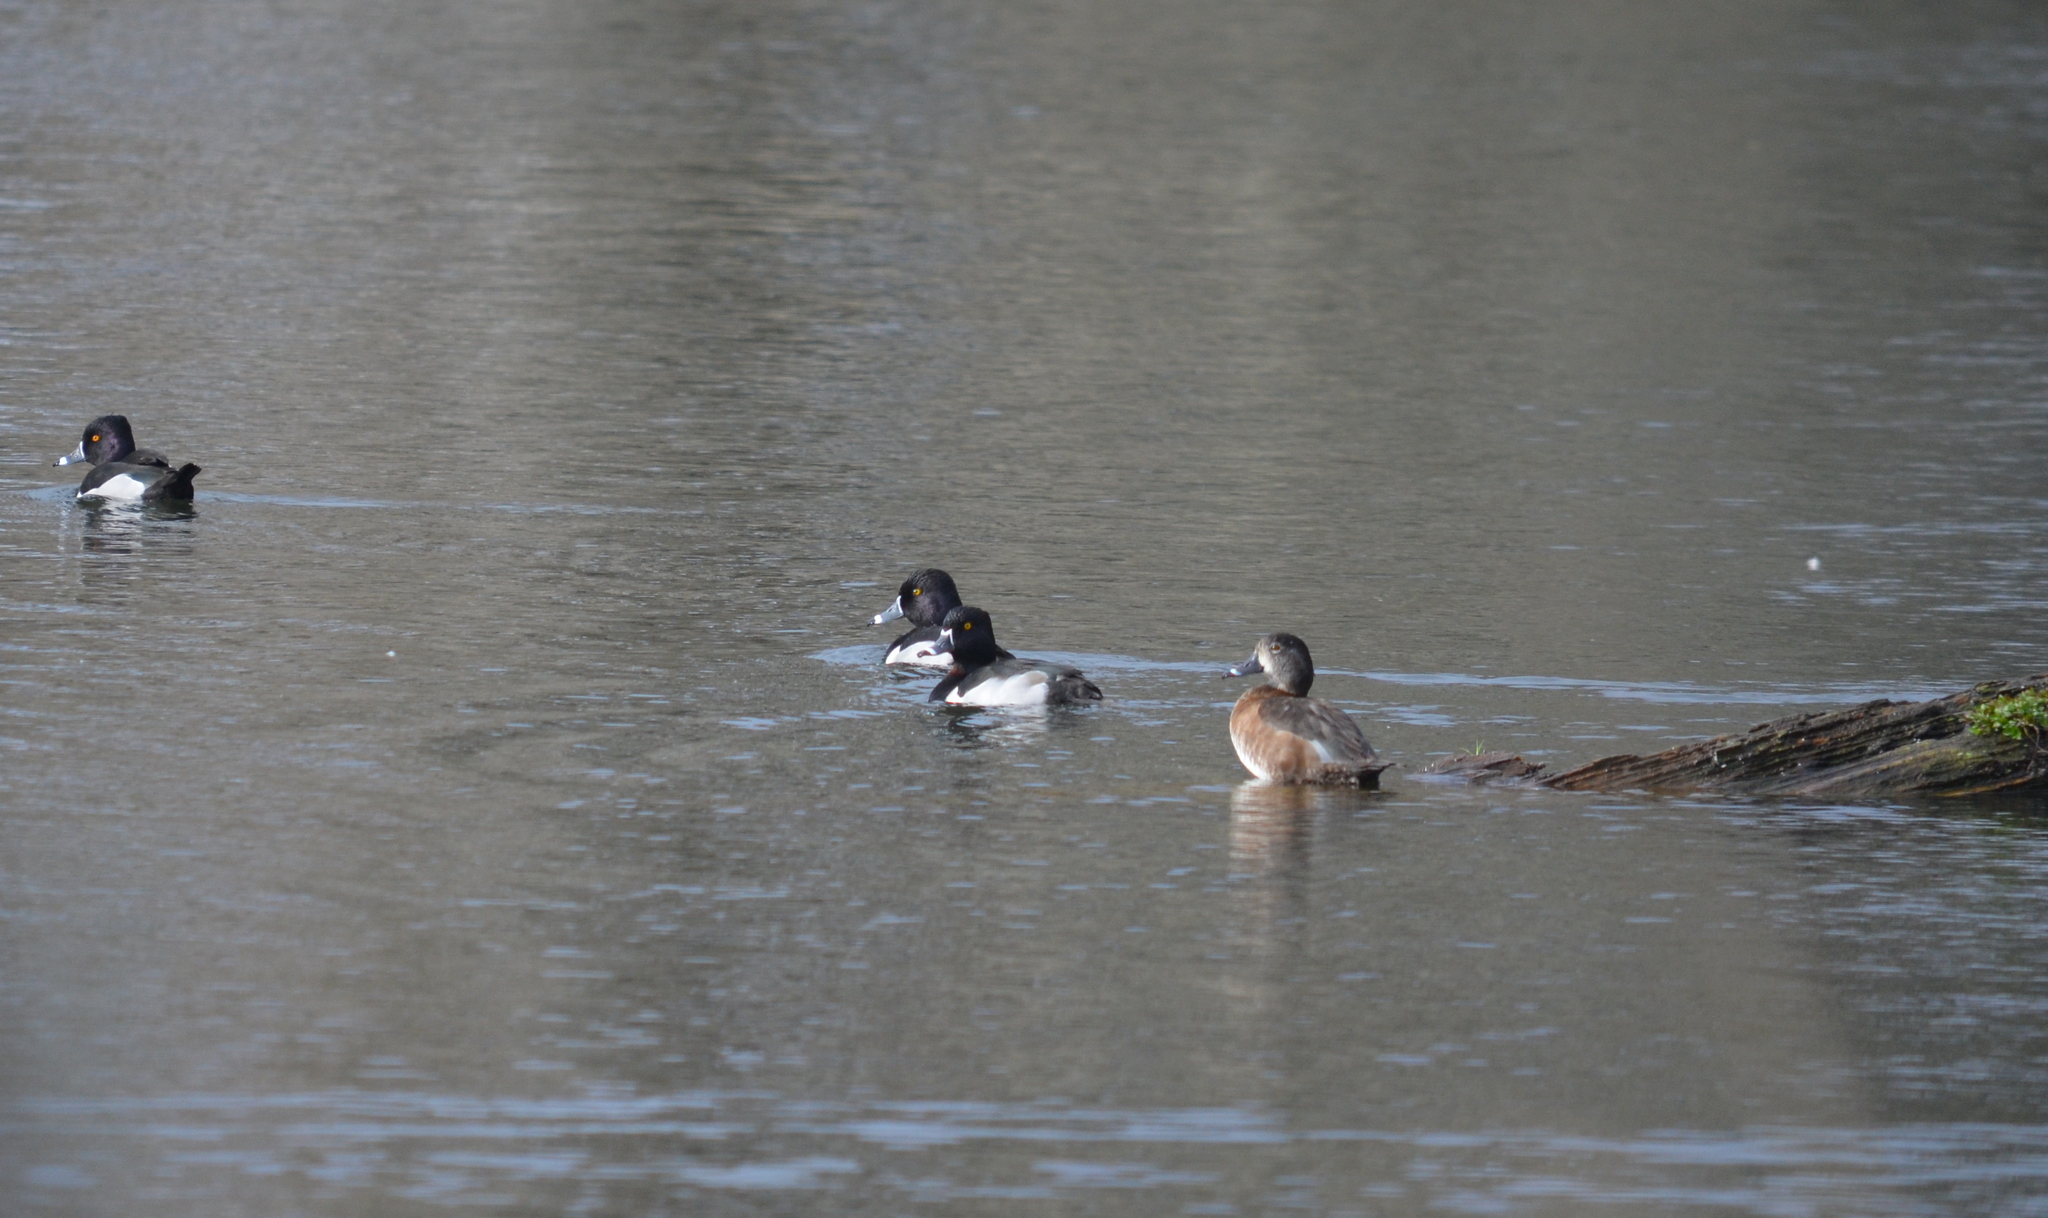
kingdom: Animalia
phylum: Chordata
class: Aves
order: Anseriformes
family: Anatidae
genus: Aythya
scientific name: Aythya collaris
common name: Ring-necked duck
